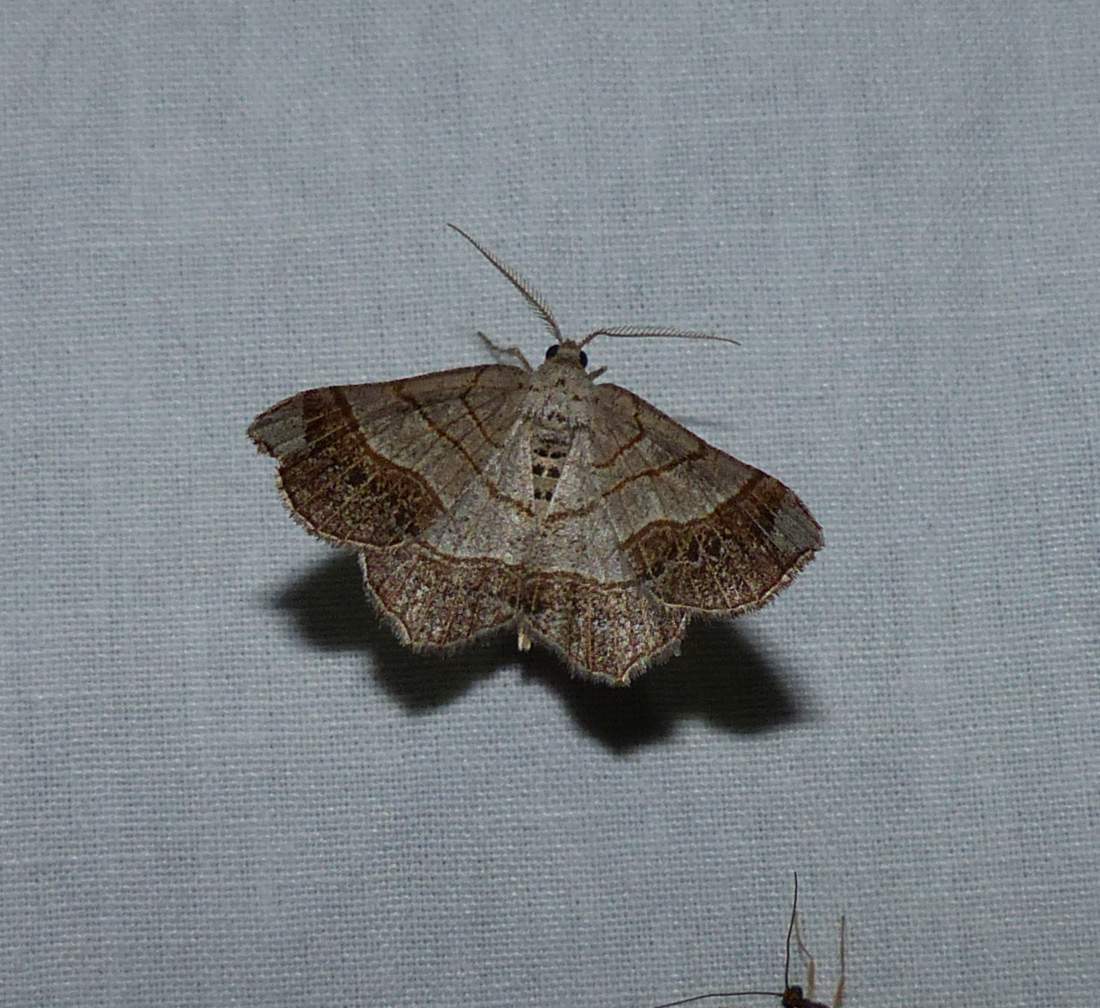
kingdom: Animalia
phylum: Arthropoda
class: Insecta
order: Lepidoptera
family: Geometridae
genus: Eumacaria
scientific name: Eumacaria madopata
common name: Brown-bordered geometer
